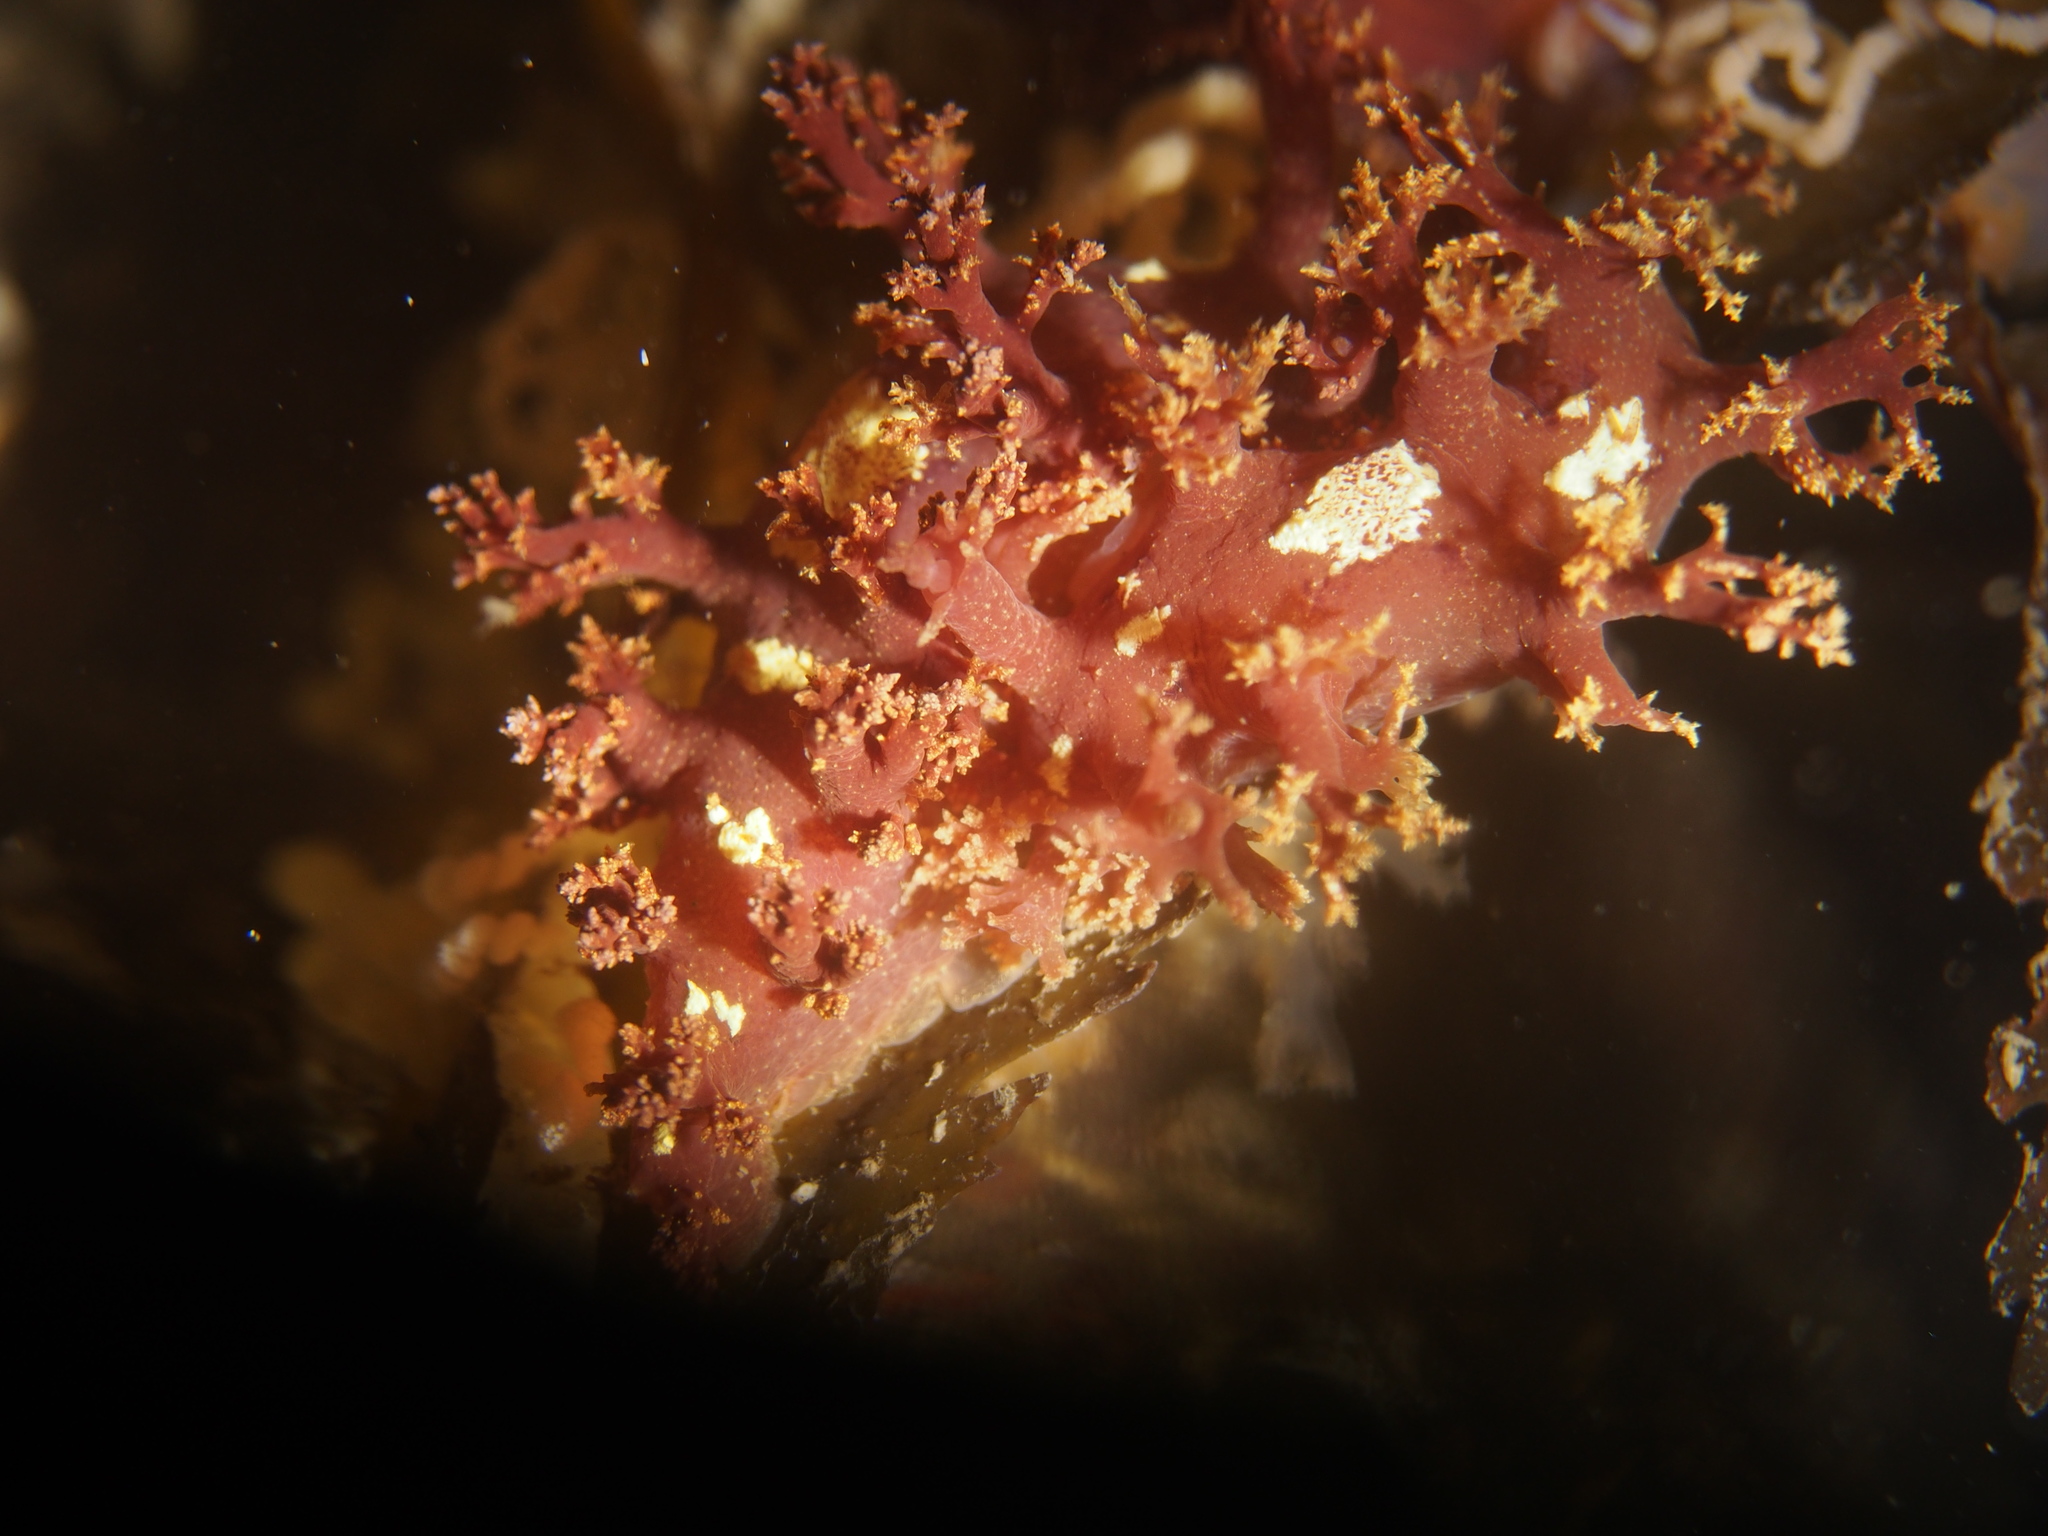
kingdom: Animalia
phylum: Mollusca
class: Gastropoda
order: Nudibranchia
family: Dendronotidae
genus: Dendronotus
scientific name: Dendronotus lacteus
